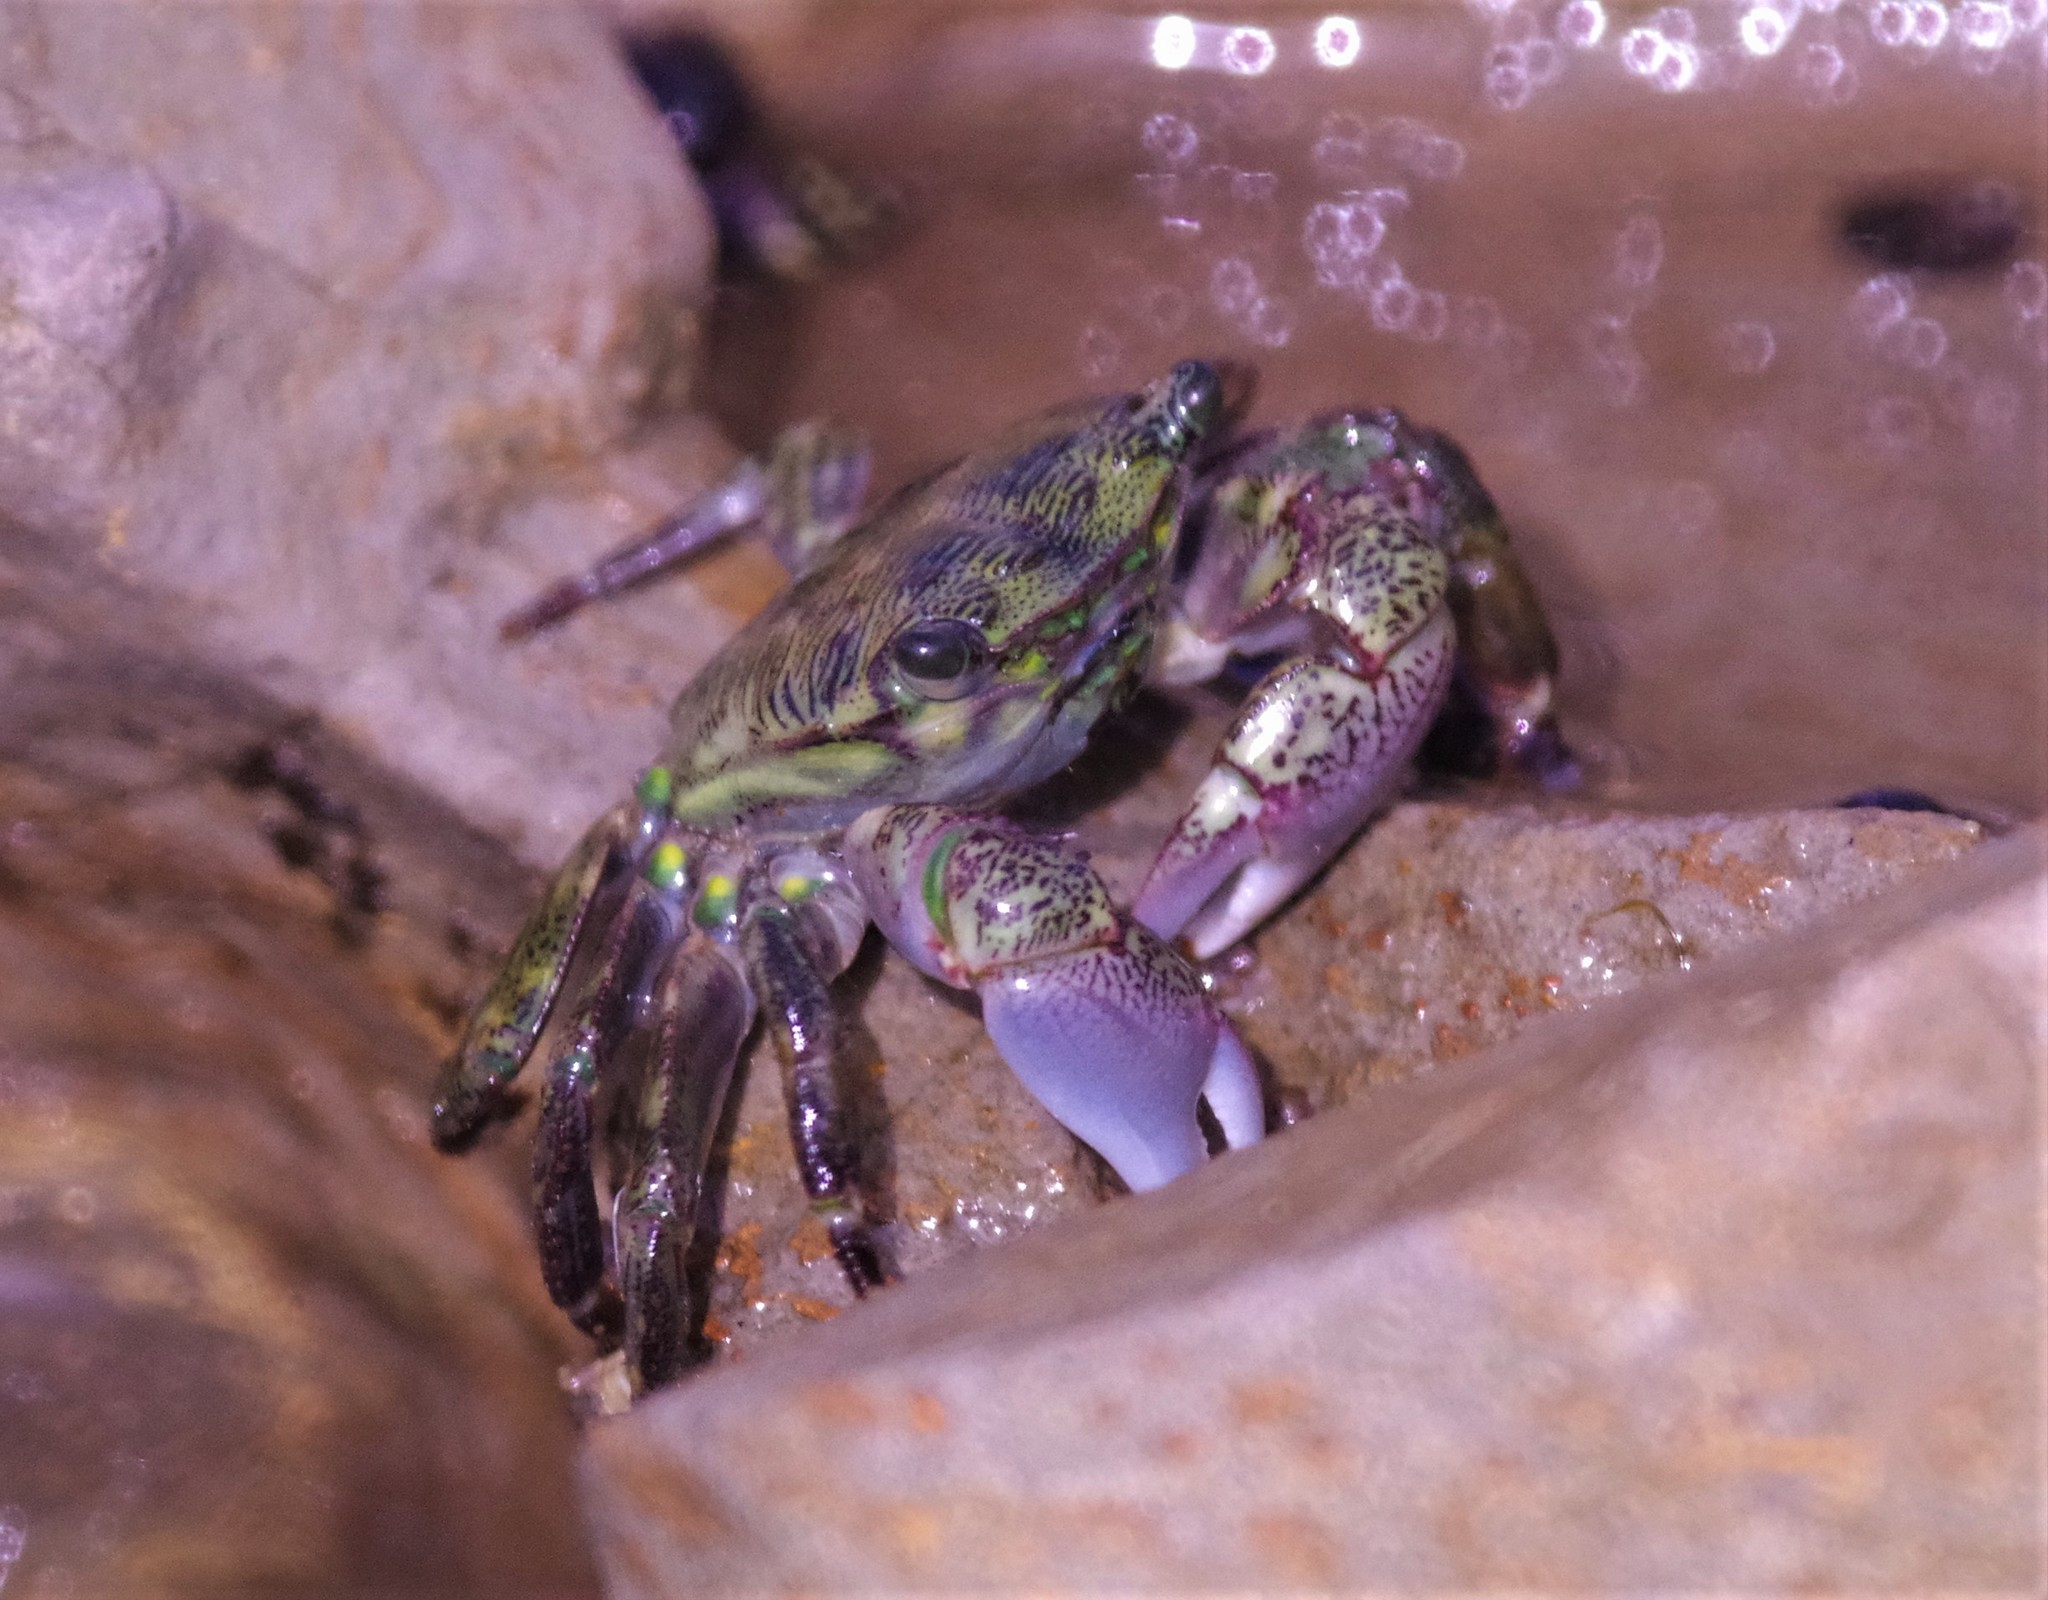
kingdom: Animalia
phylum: Arthropoda
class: Malacostraca
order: Decapoda
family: Grapsidae
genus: Pachygrapsus
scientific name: Pachygrapsus crassipes
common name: Striped shore crab
